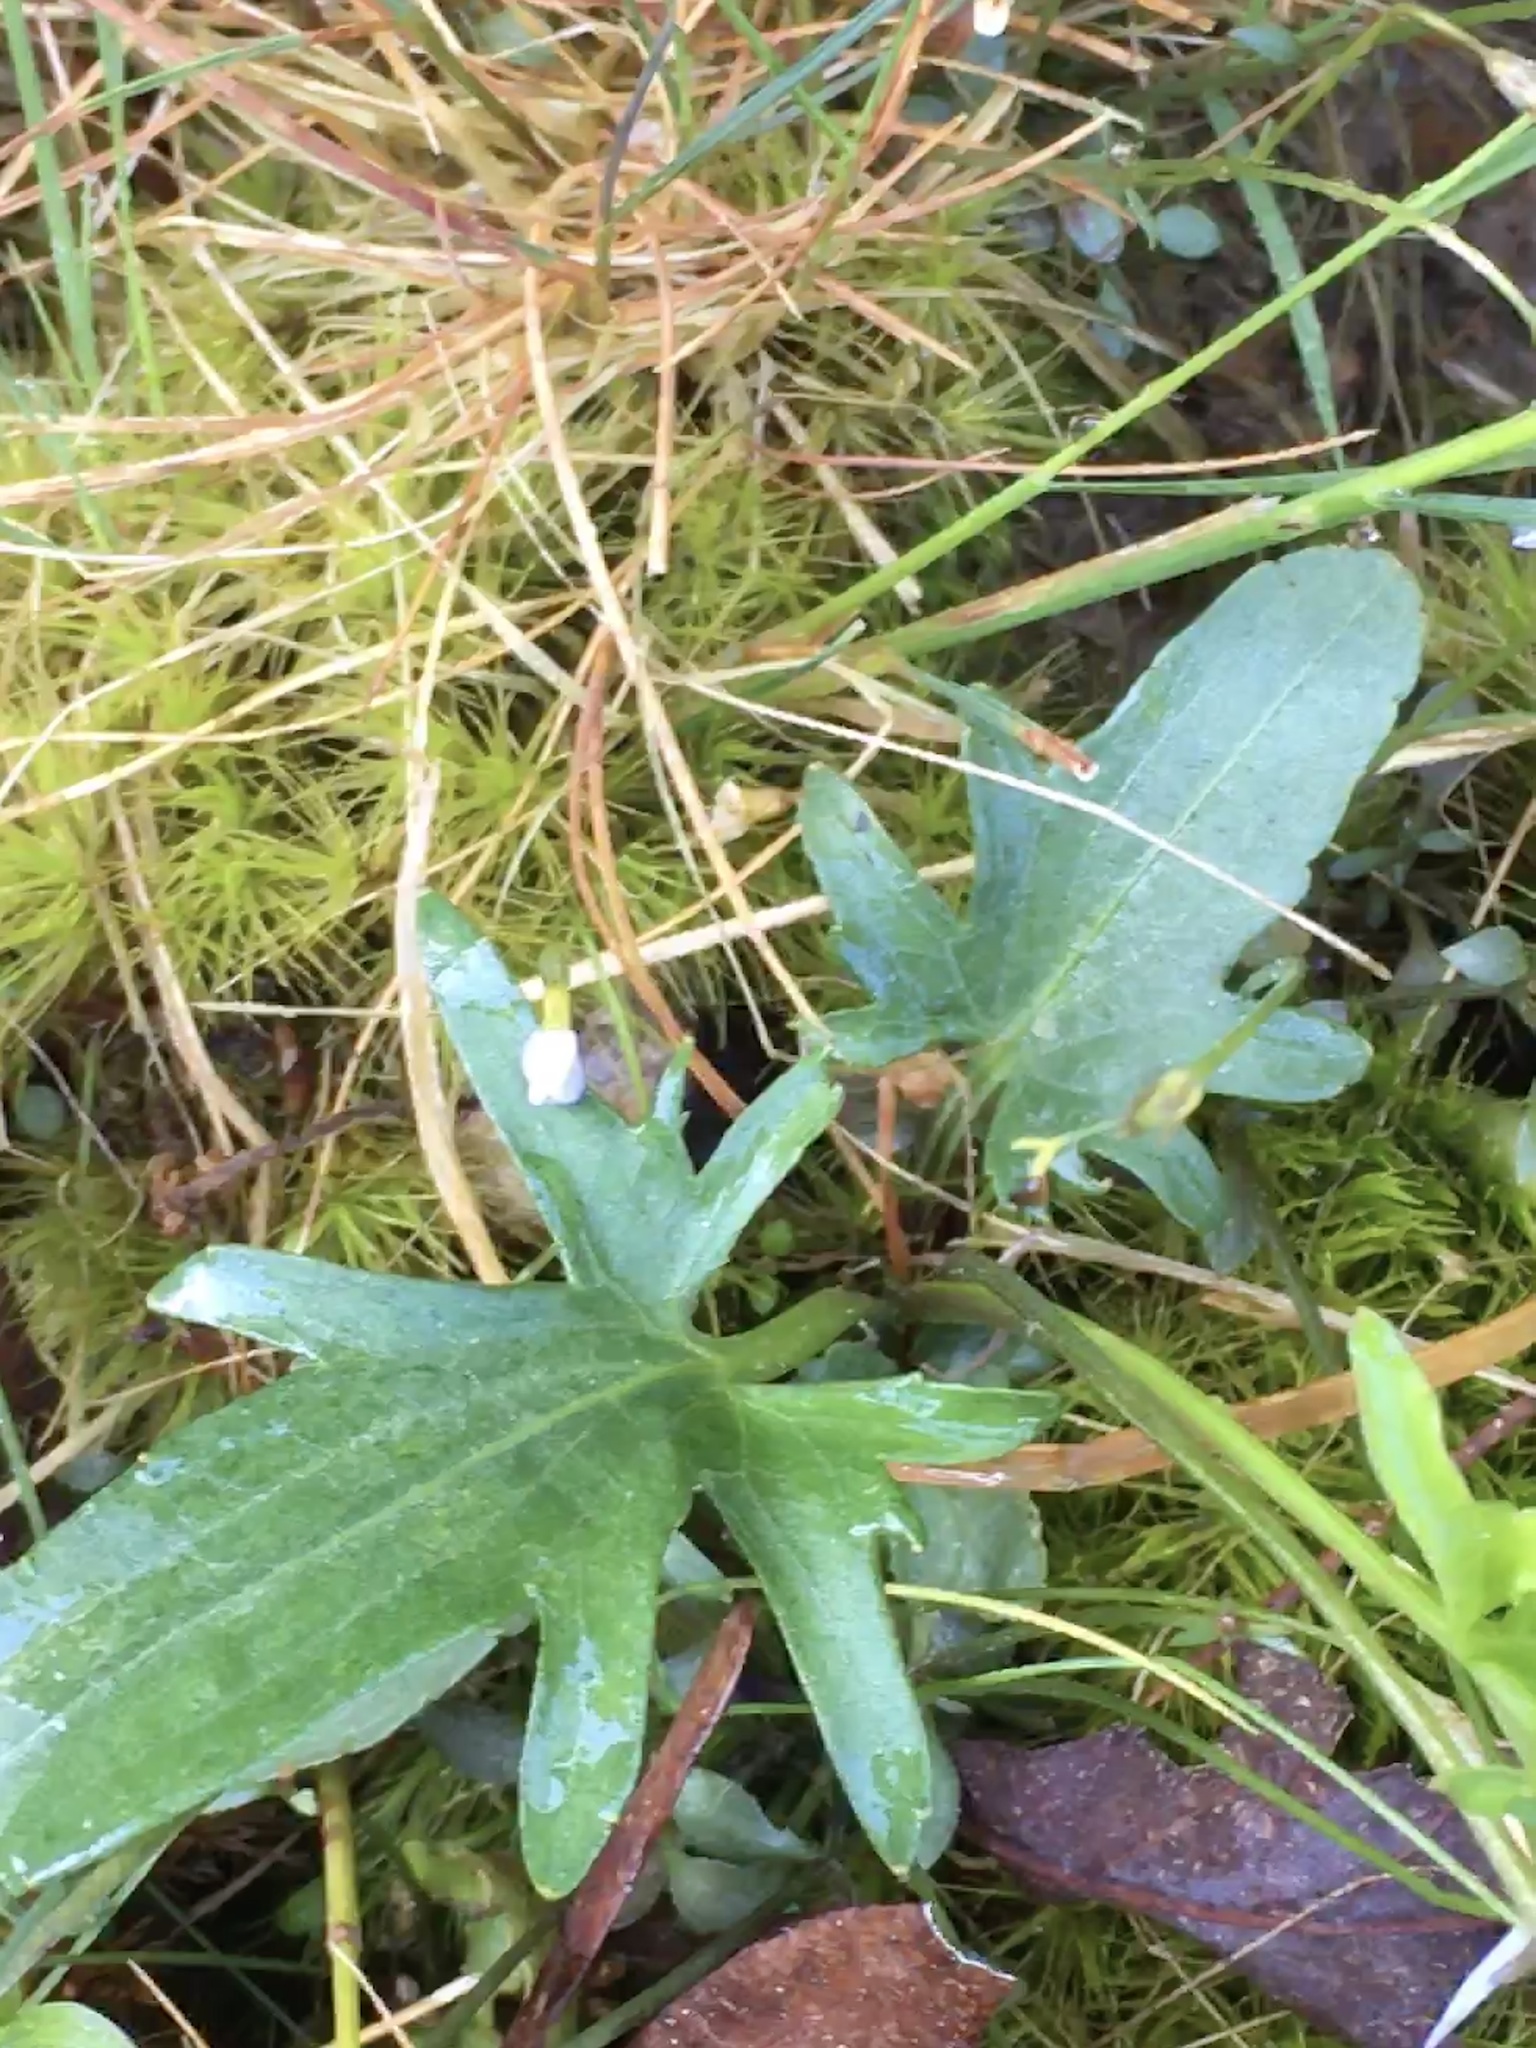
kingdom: Plantae
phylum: Tracheophyta
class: Magnoliopsida
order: Malpighiales
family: Violaceae
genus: Viola
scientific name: Viola palmata
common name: Early blue violet
